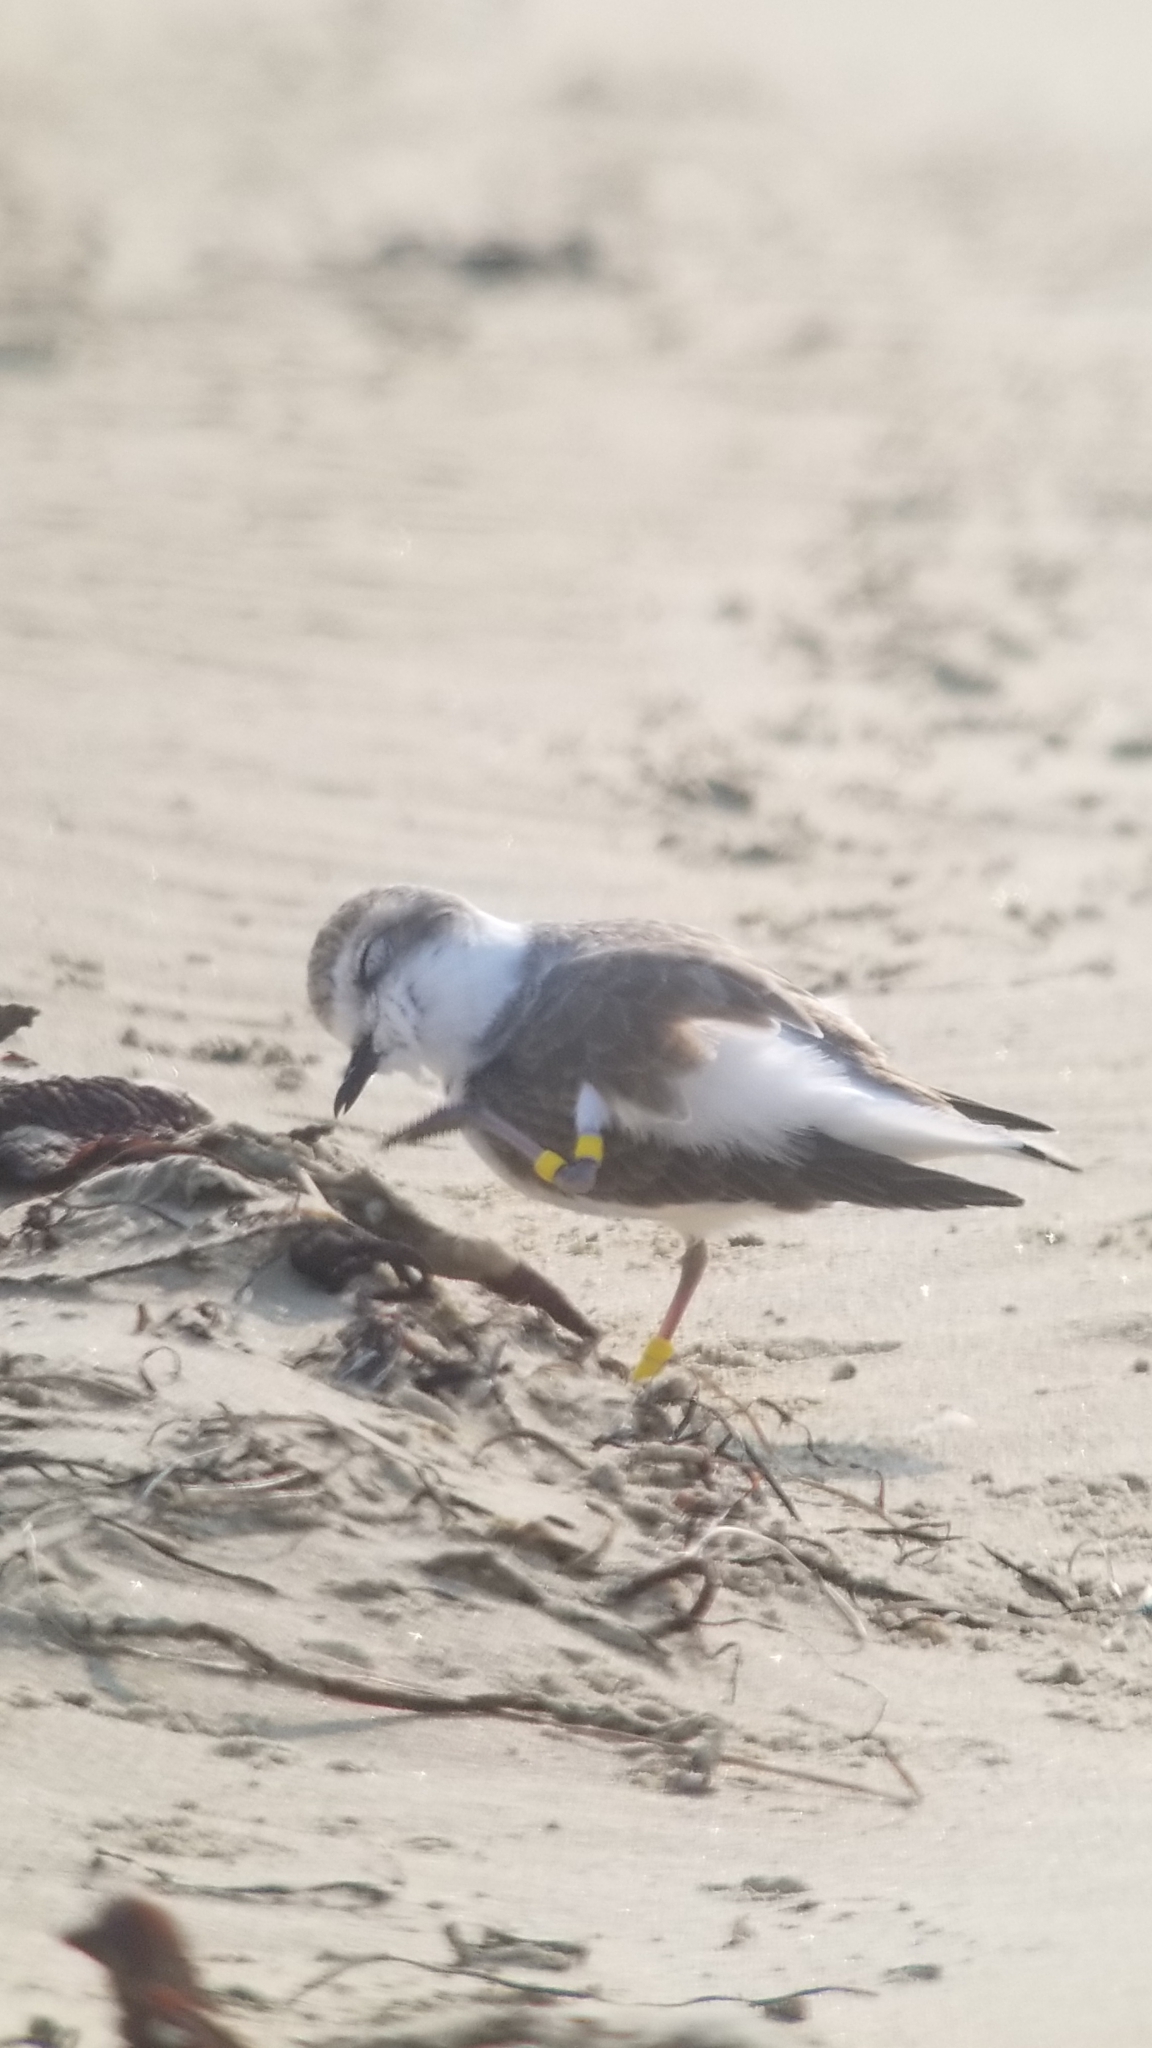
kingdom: Animalia
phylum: Chordata
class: Aves
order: Charadriiformes
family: Charadriidae
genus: Anarhynchus
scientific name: Anarhynchus
